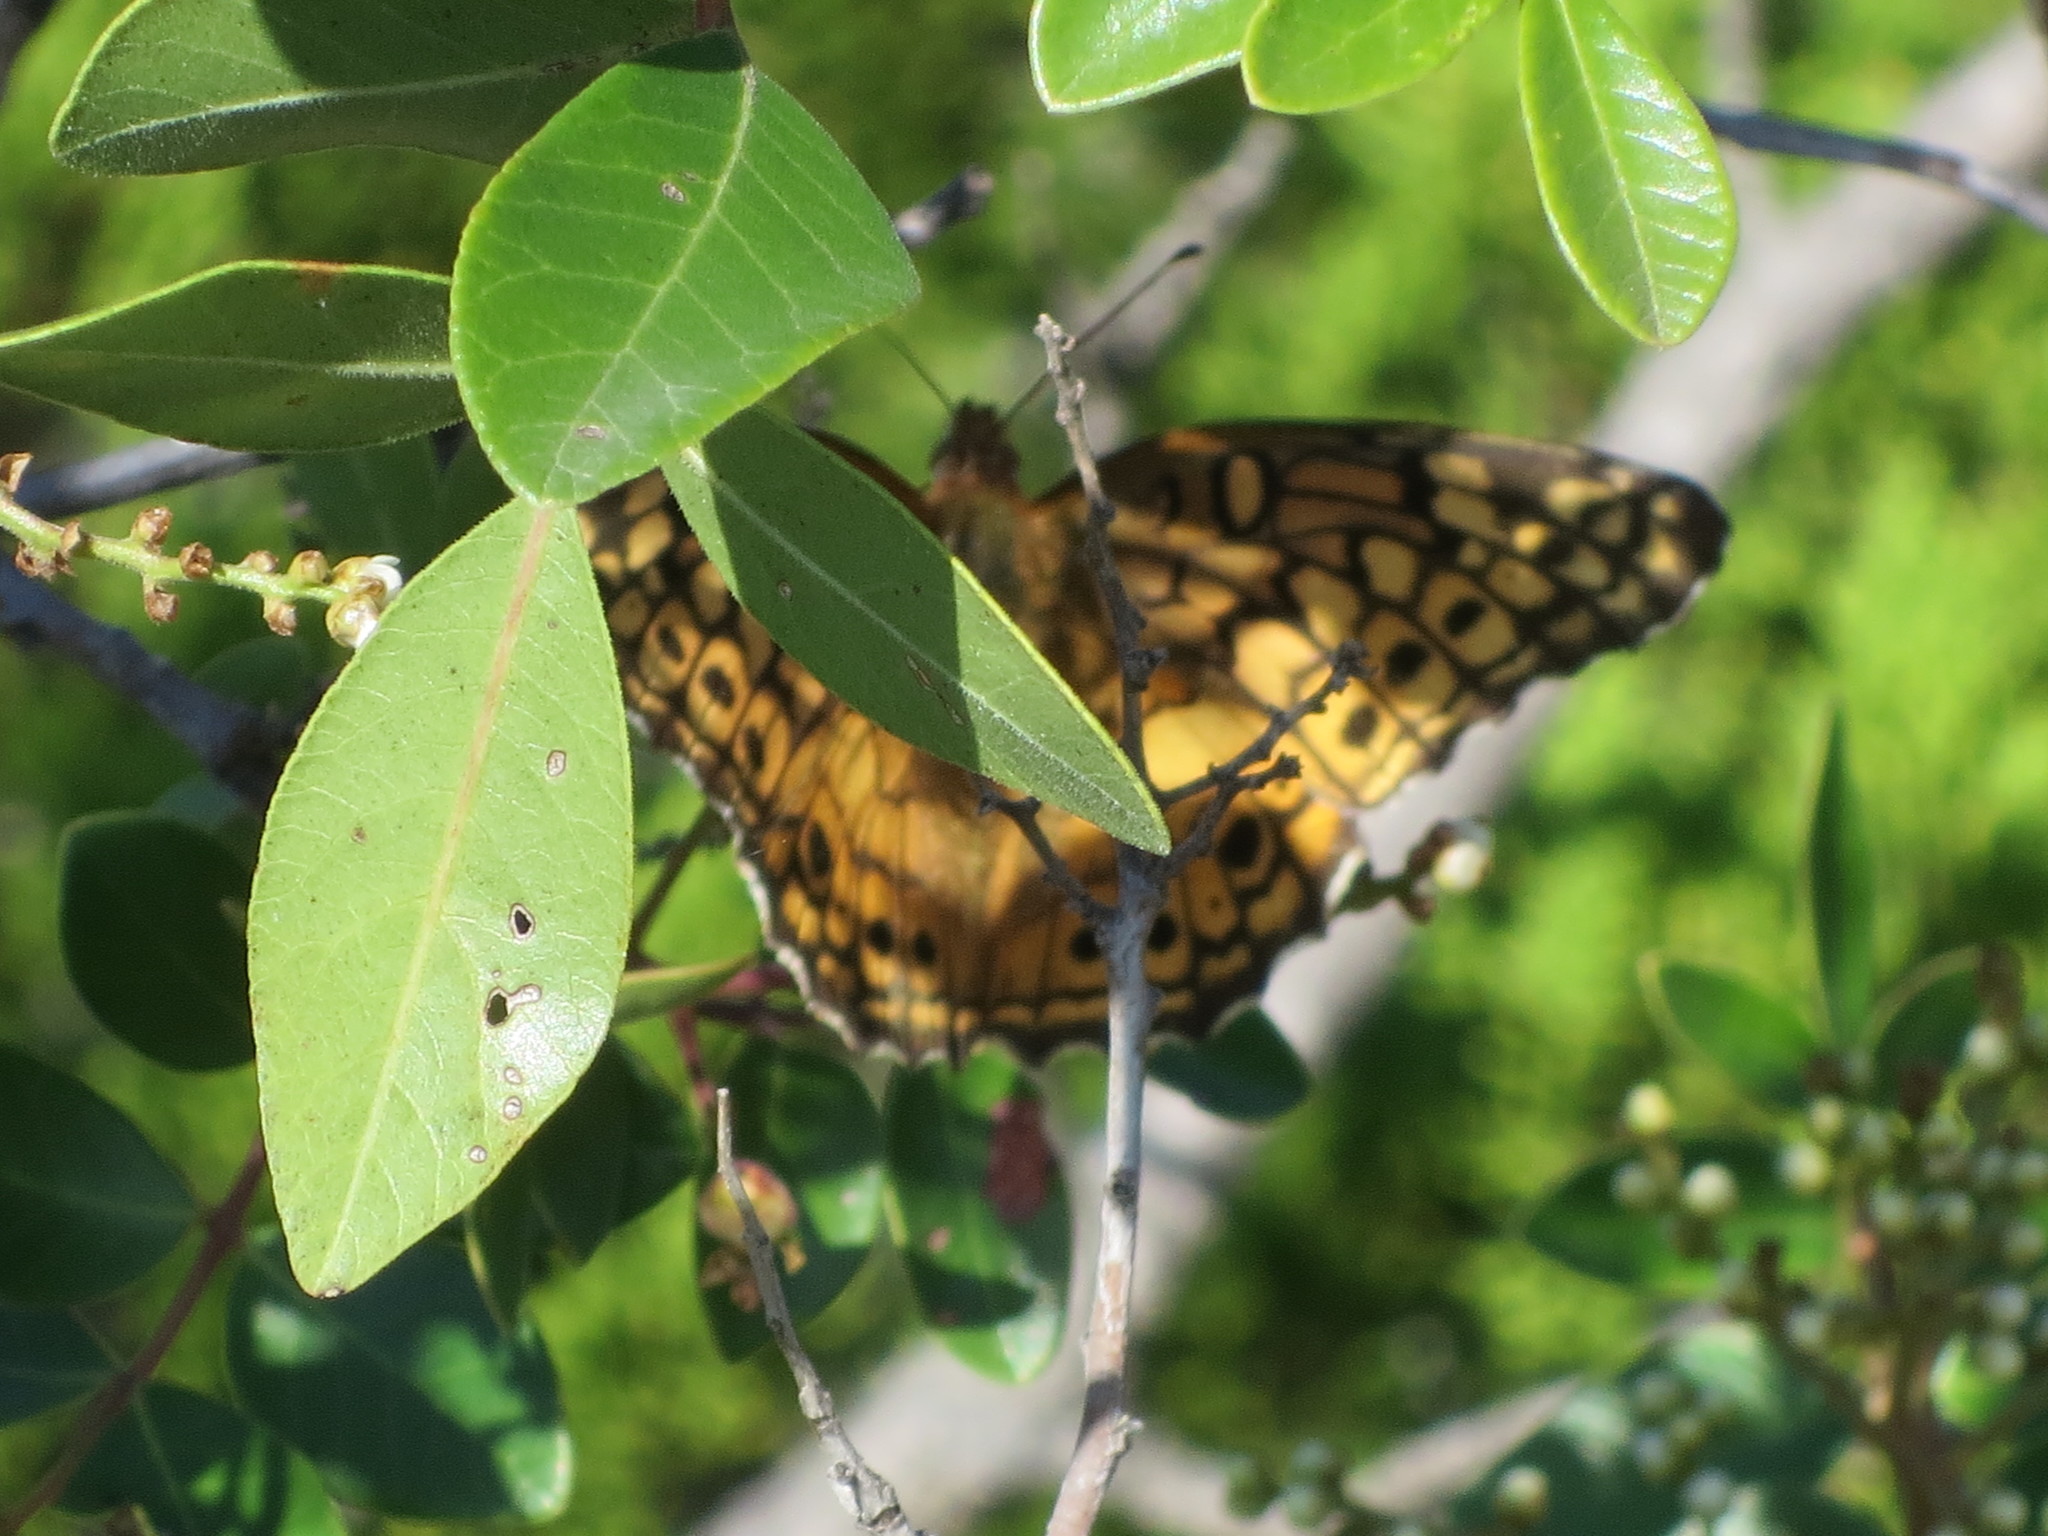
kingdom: Animalia
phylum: Arthropoda
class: Insecta
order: Lepidoptera
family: Nymphalidae
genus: Euptoieta
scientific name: Euptoieta claudia
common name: Variegated fritillary
